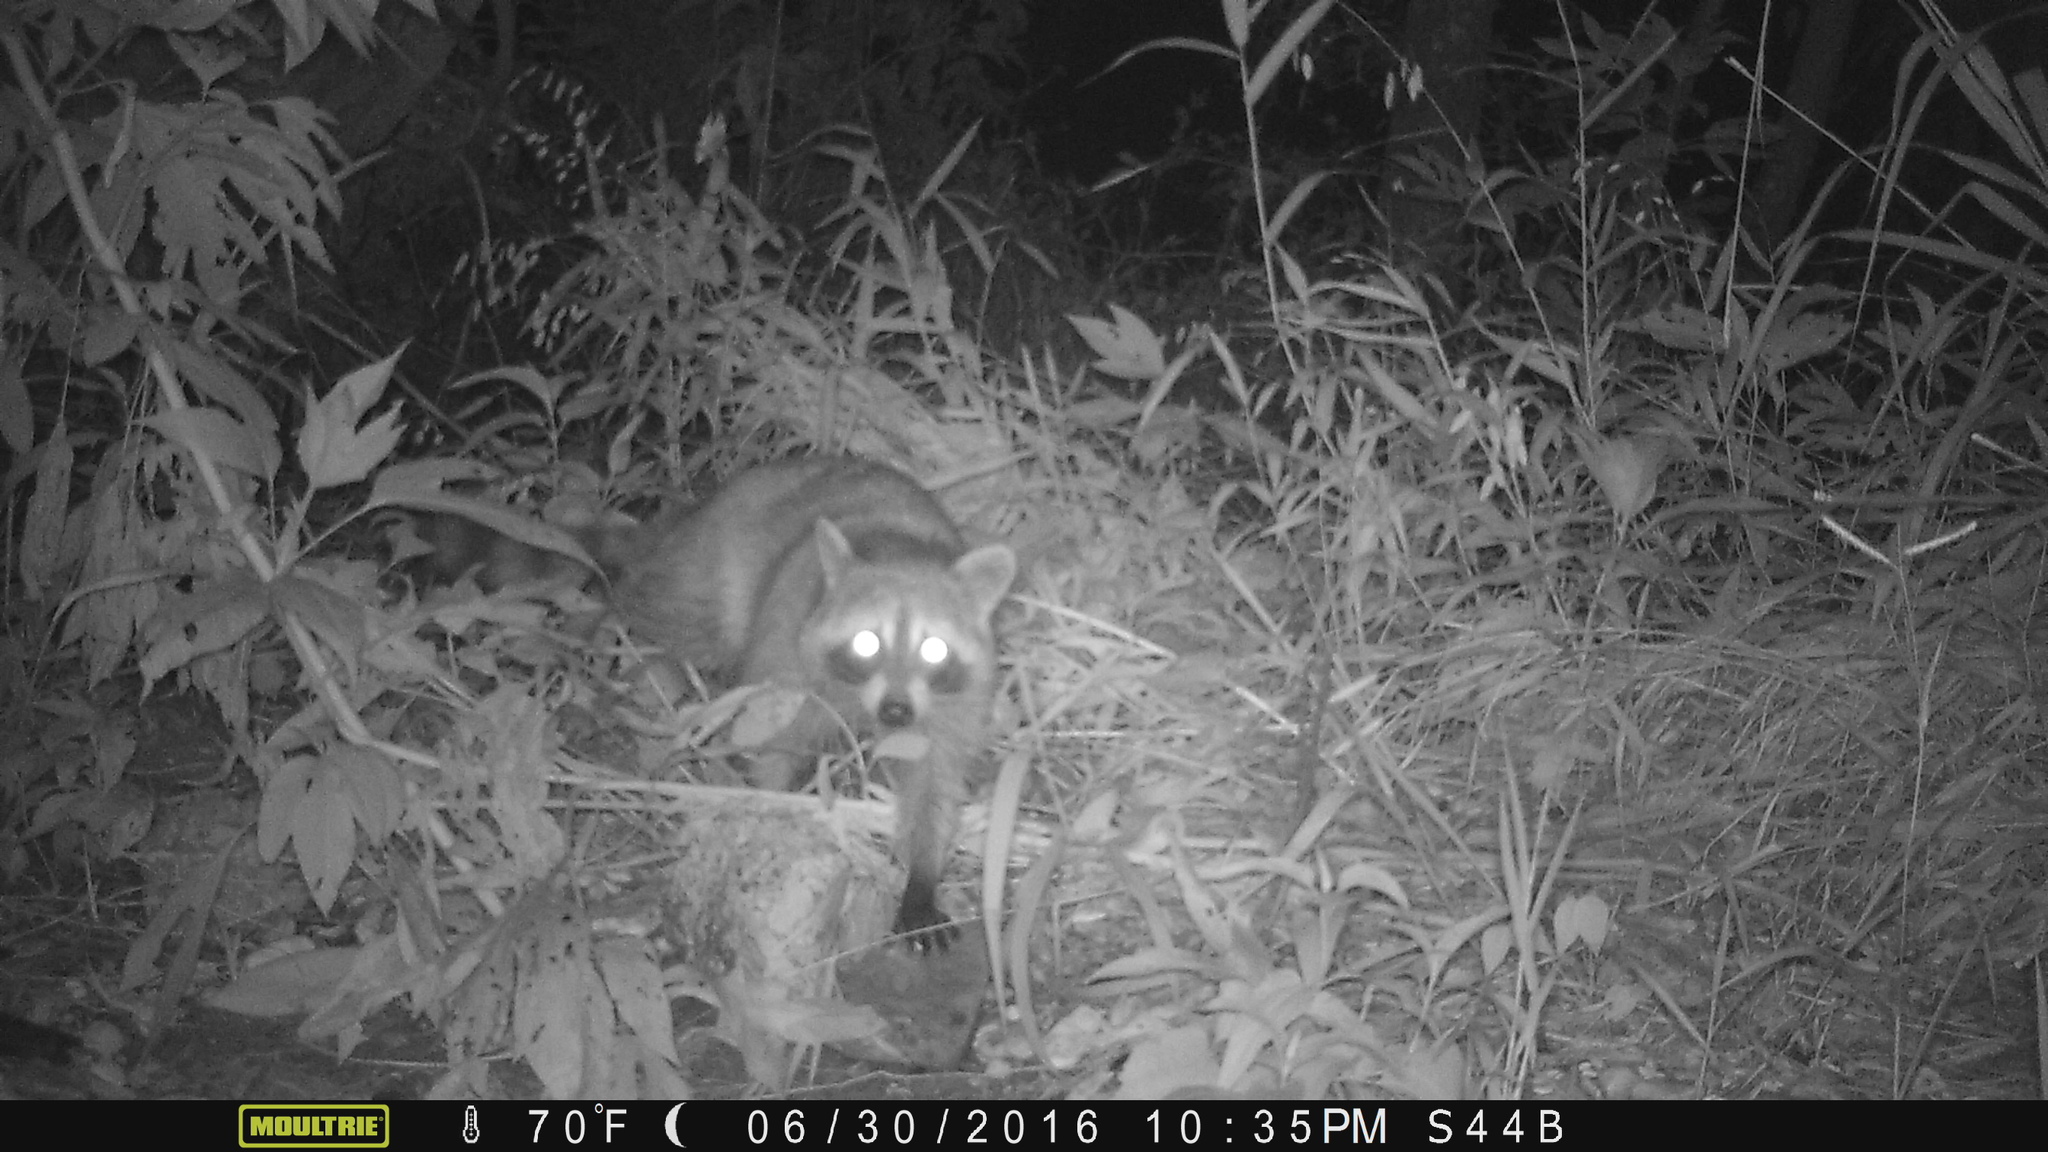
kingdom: Animalia
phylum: Chordata
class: Mammalia
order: Carnivora
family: Procyonidae
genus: Procyon
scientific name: Procyon lotor
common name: Raccoon
